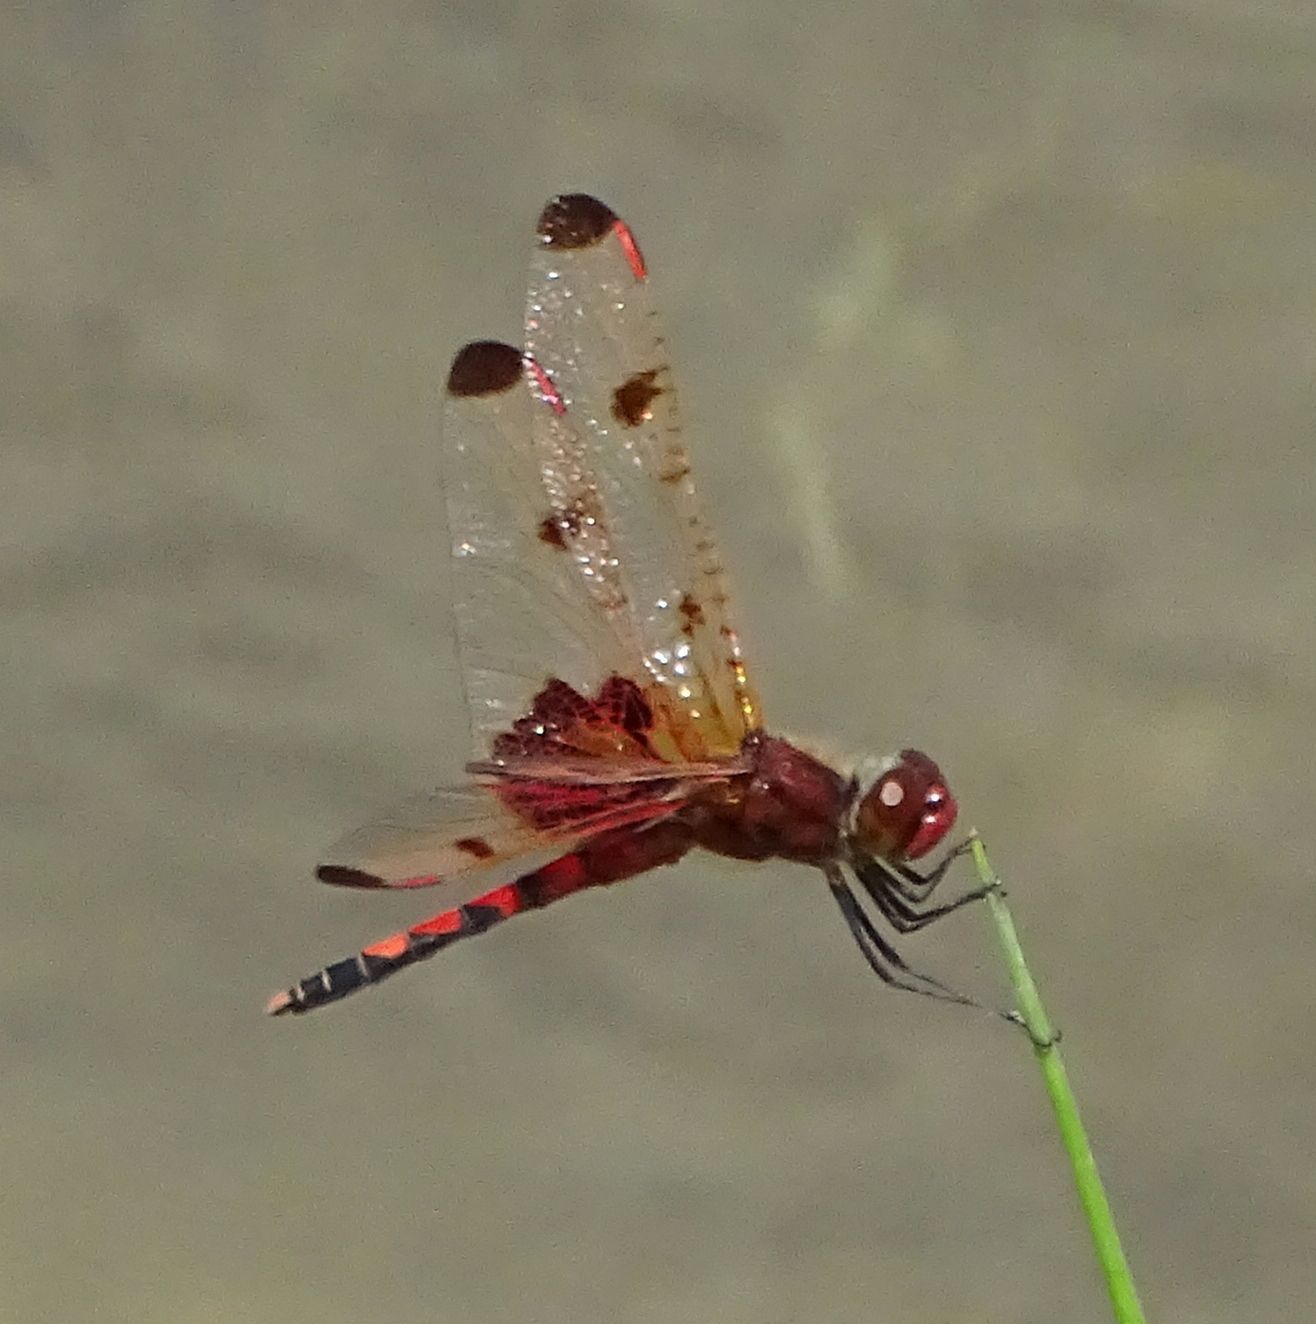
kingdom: Animalia
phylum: Arthropoda
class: Insecta
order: Odonata
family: Libellulidae
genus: Celithemis
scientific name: Celithemis elisa
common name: Calico pennant
